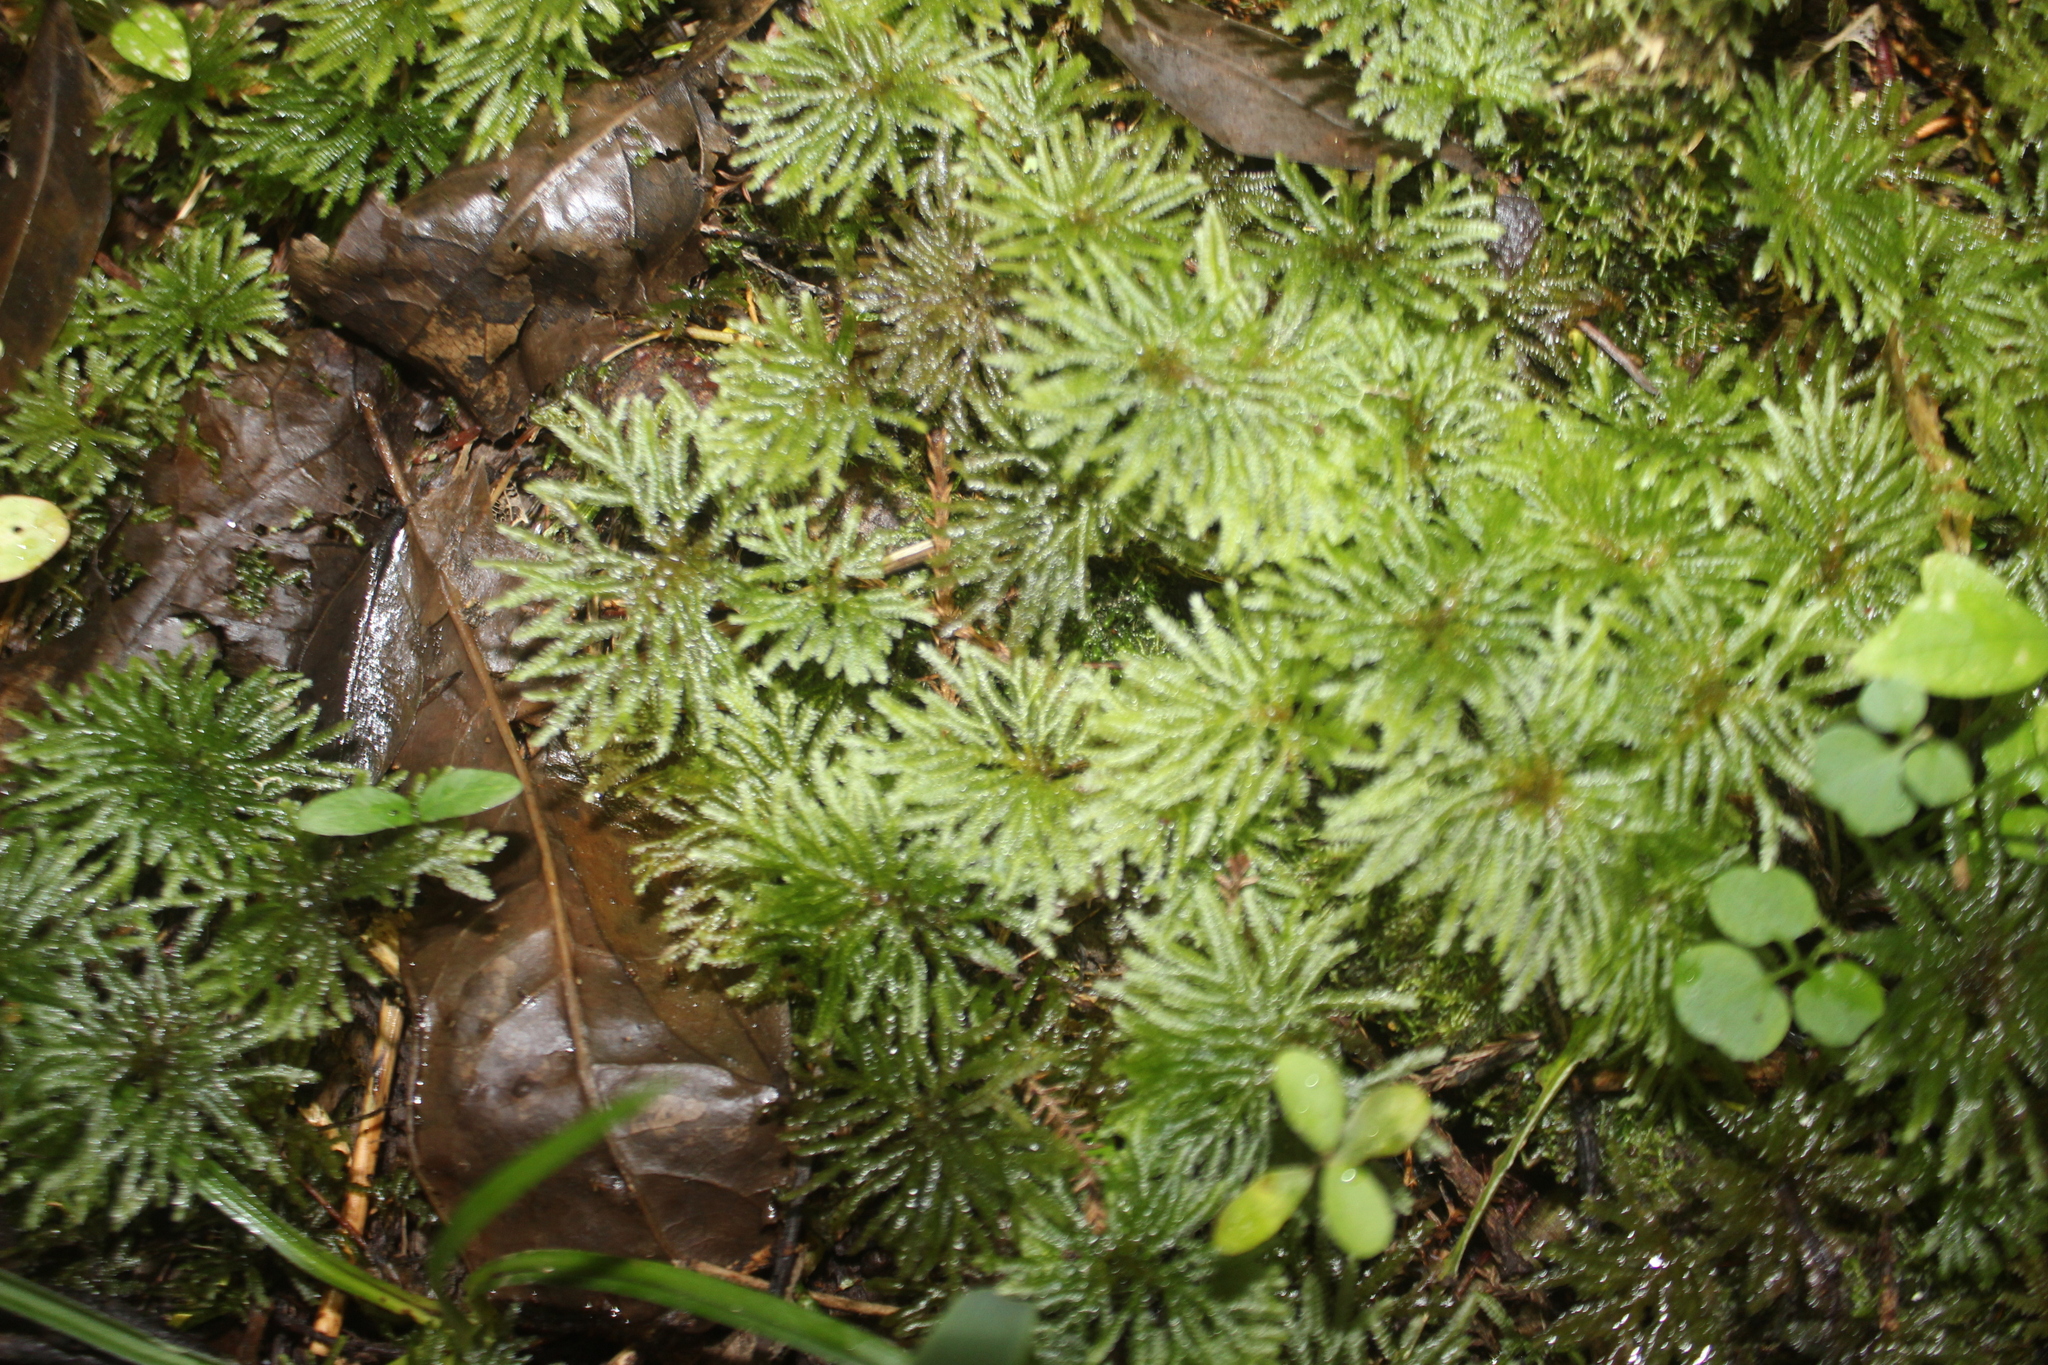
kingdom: Plantae
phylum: Bryophyta
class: Bryopsida
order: Hypopterygiales
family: Hypopterygiaceae
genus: Canalohypopterygium
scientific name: Canalohypopterygium tamariscinum
